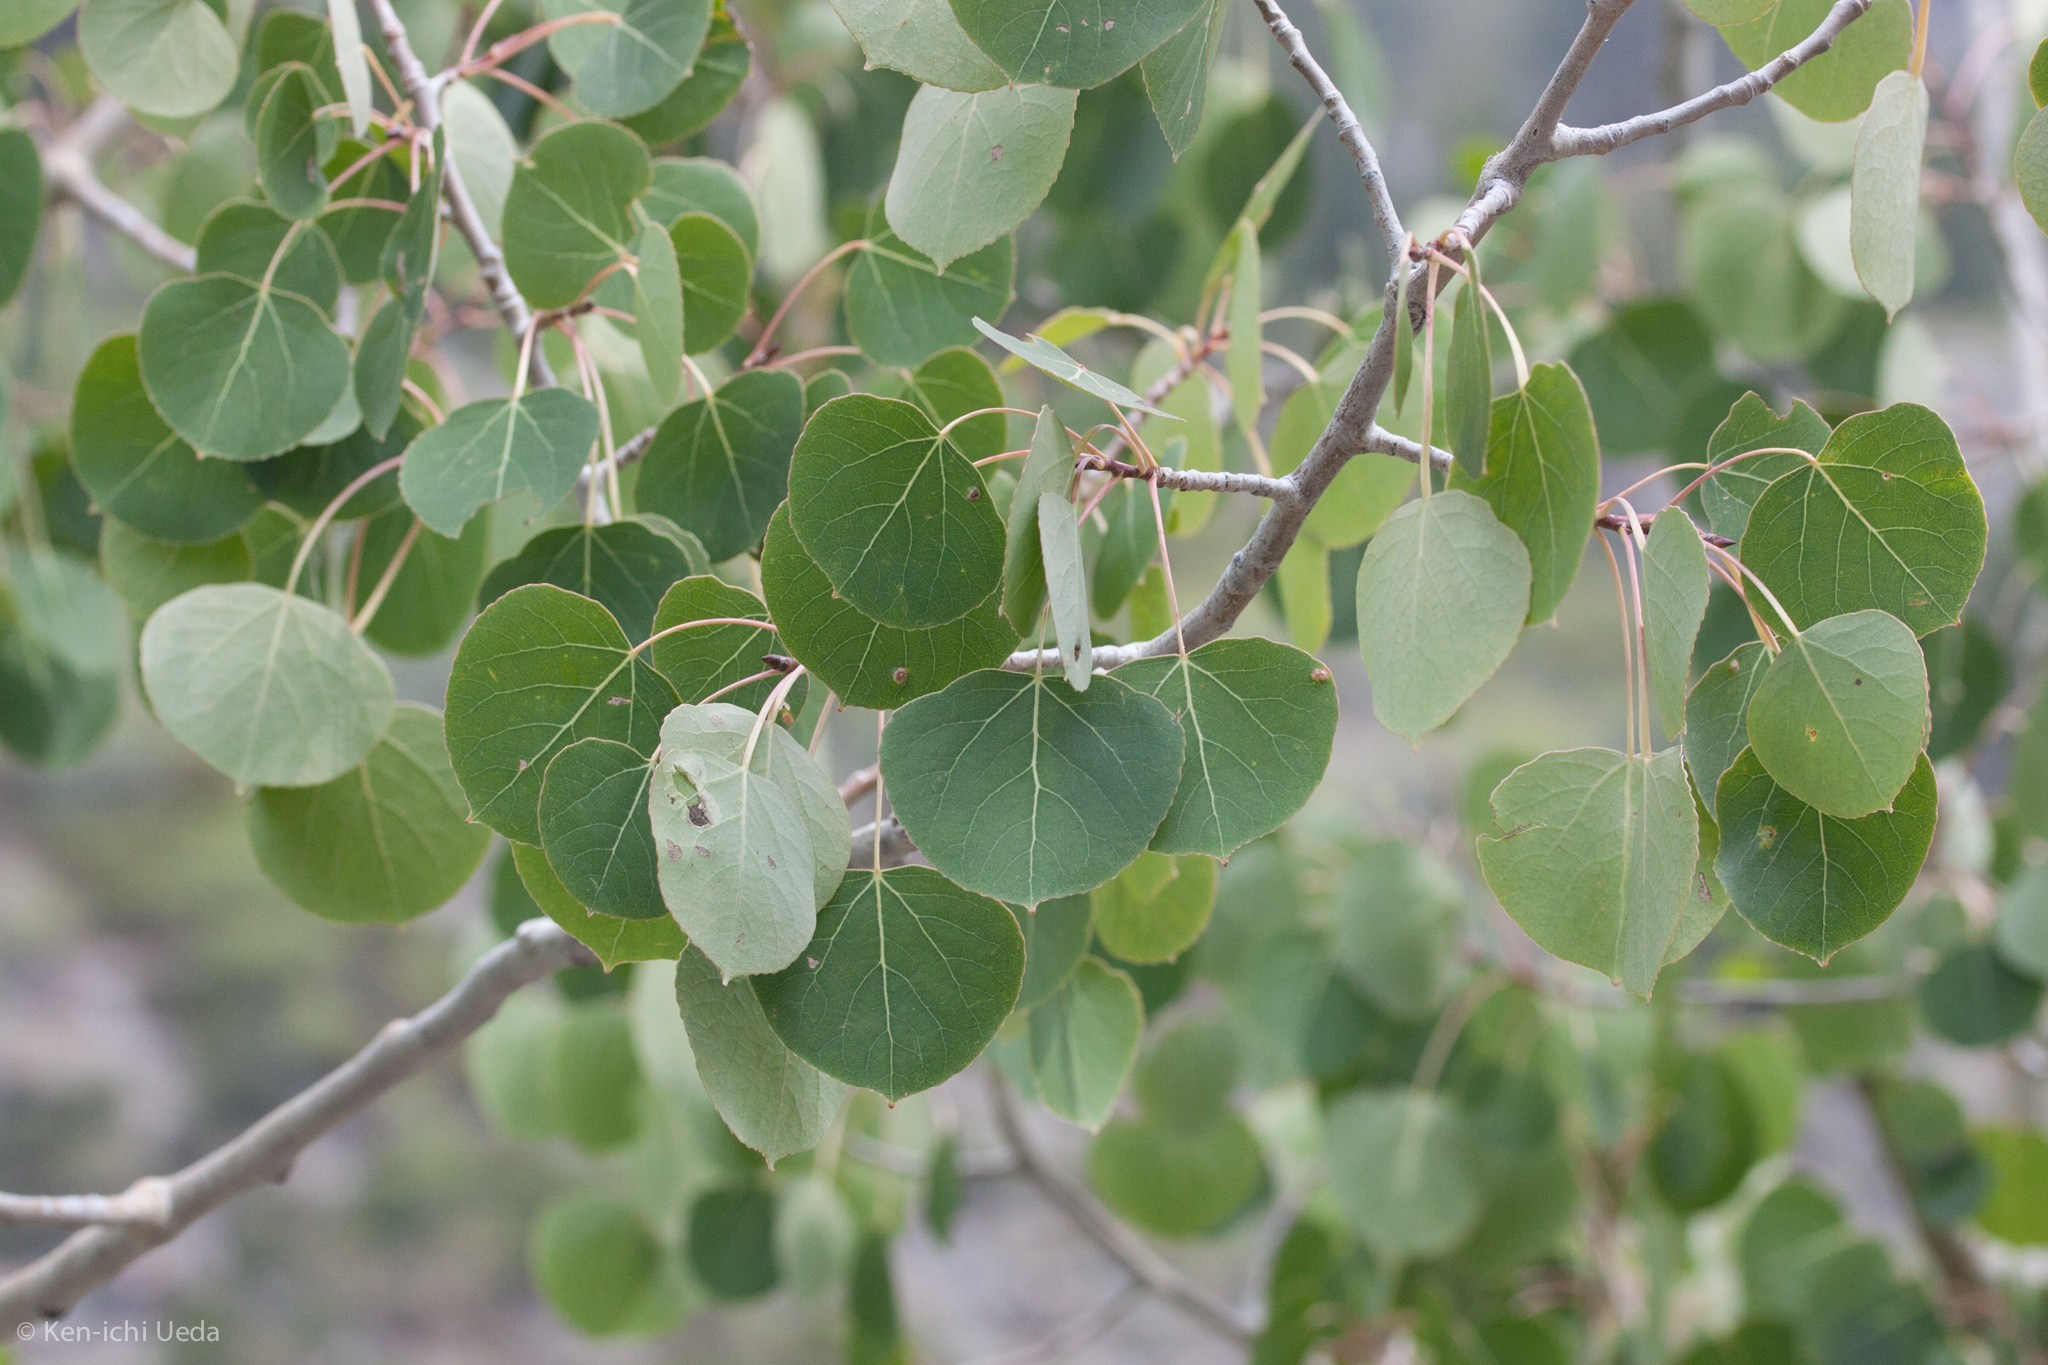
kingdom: Plantae
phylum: Tracheophyta
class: Magnoliopsida
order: Malpighiales
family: Salicaceae
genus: Populus
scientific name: Populus tremuloides
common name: Quaking aspen
